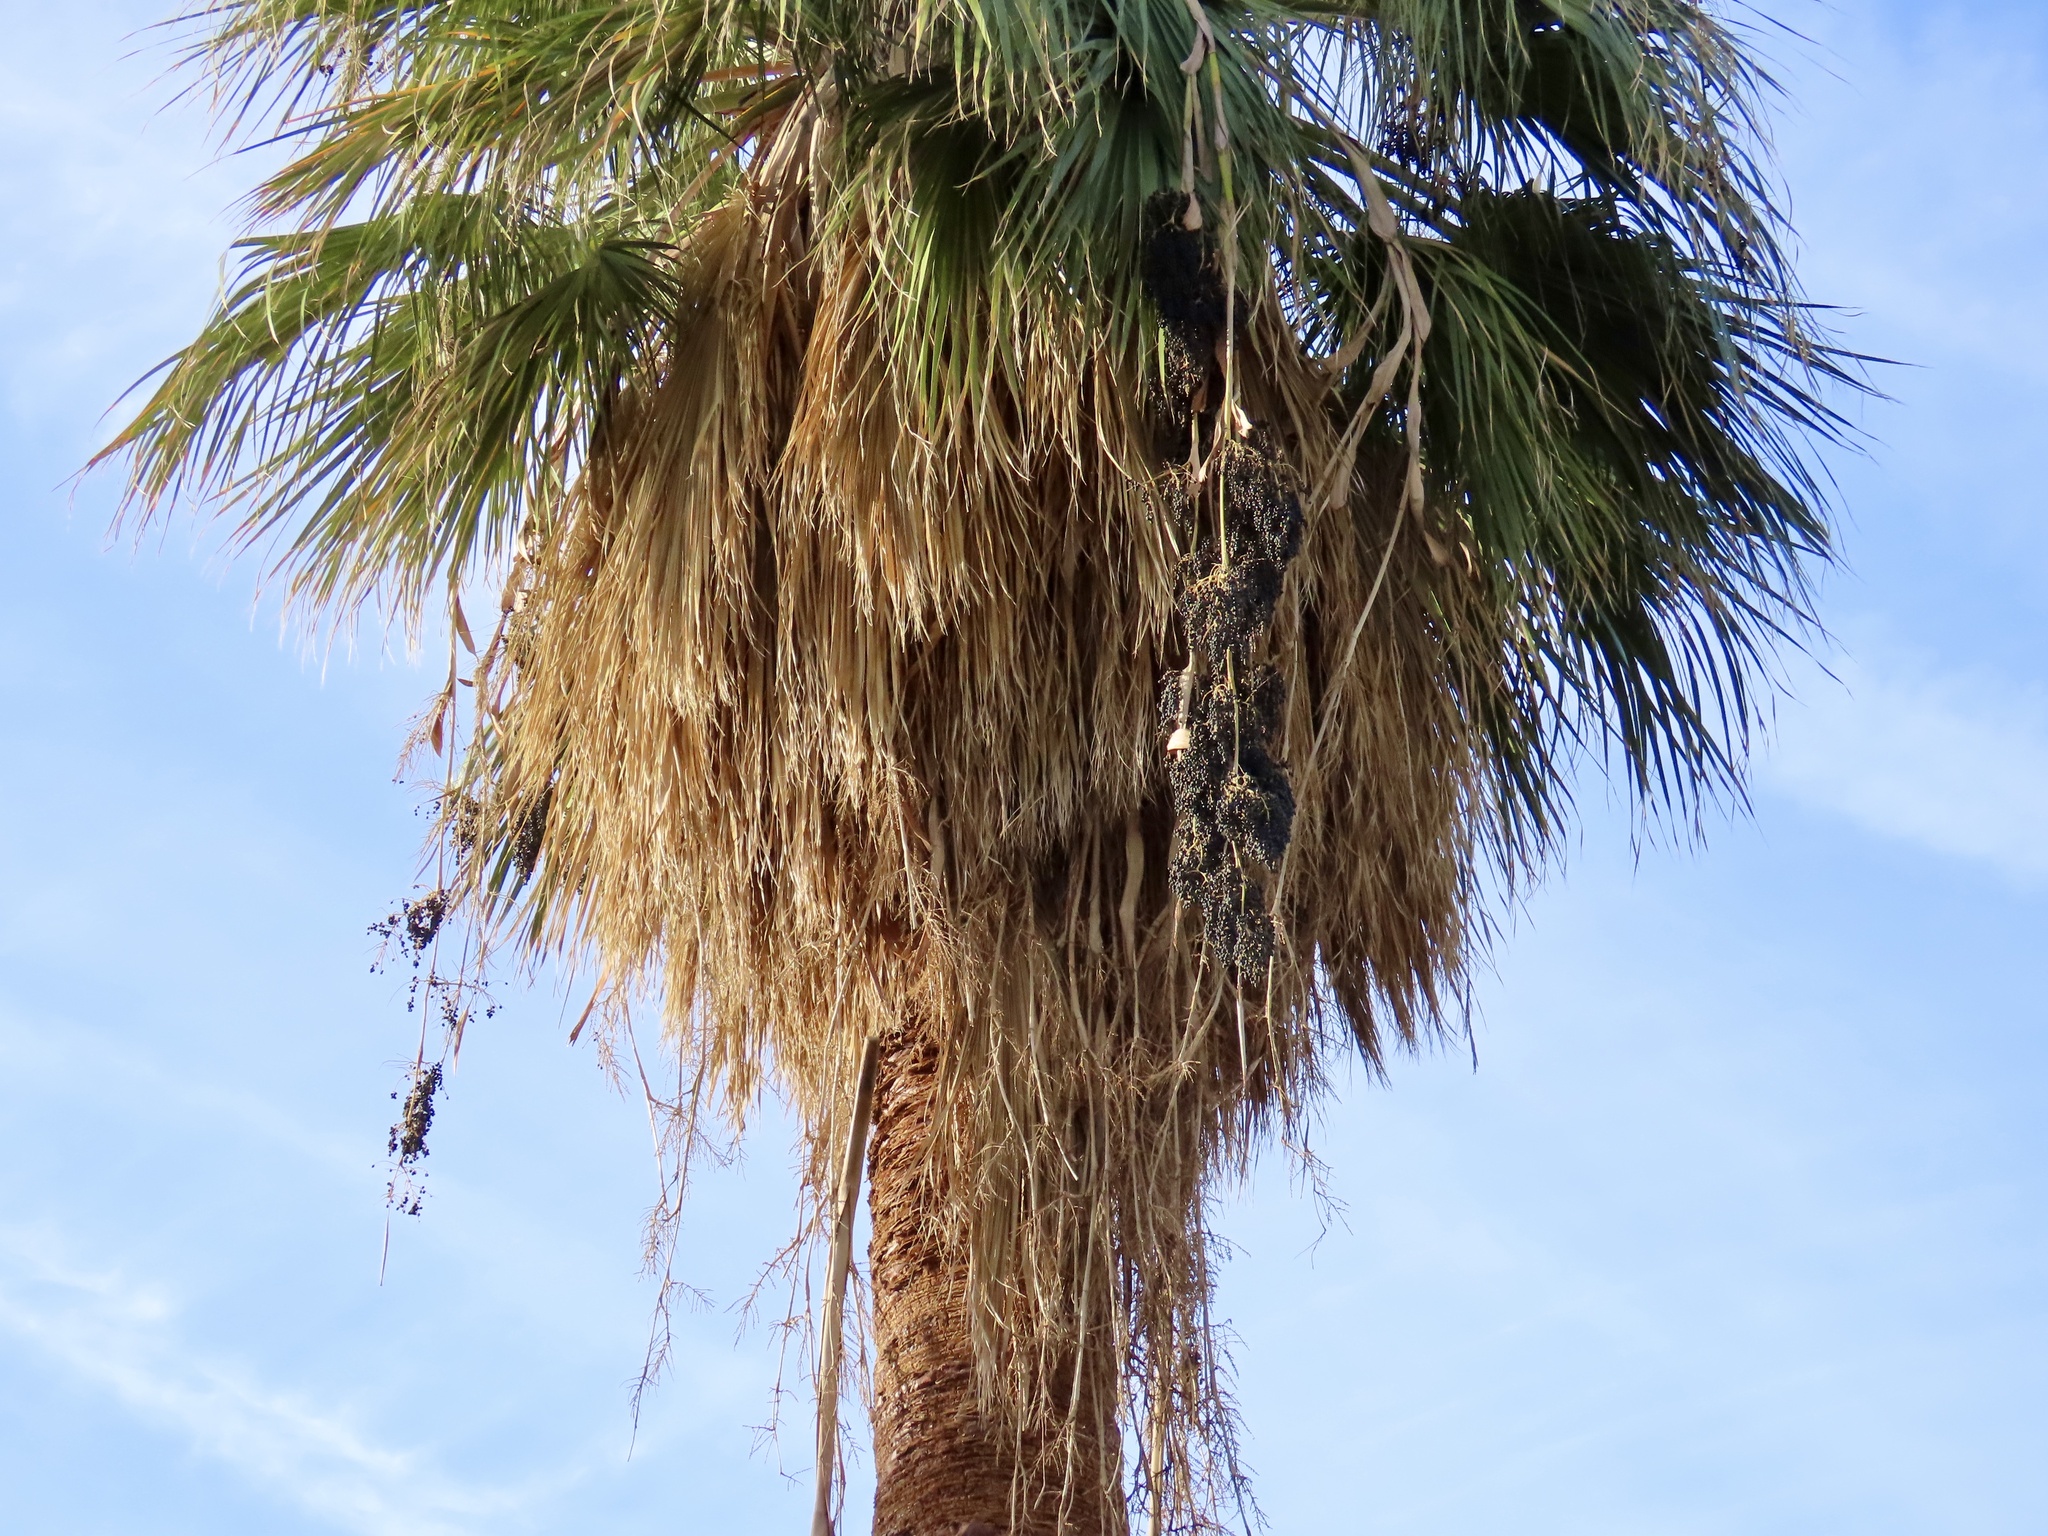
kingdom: Animalia
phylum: Chordata
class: Aves
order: Passeriformes
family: Parulidae
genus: Setophaga
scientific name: Setophaga auduboni
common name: Audubon's warbler
